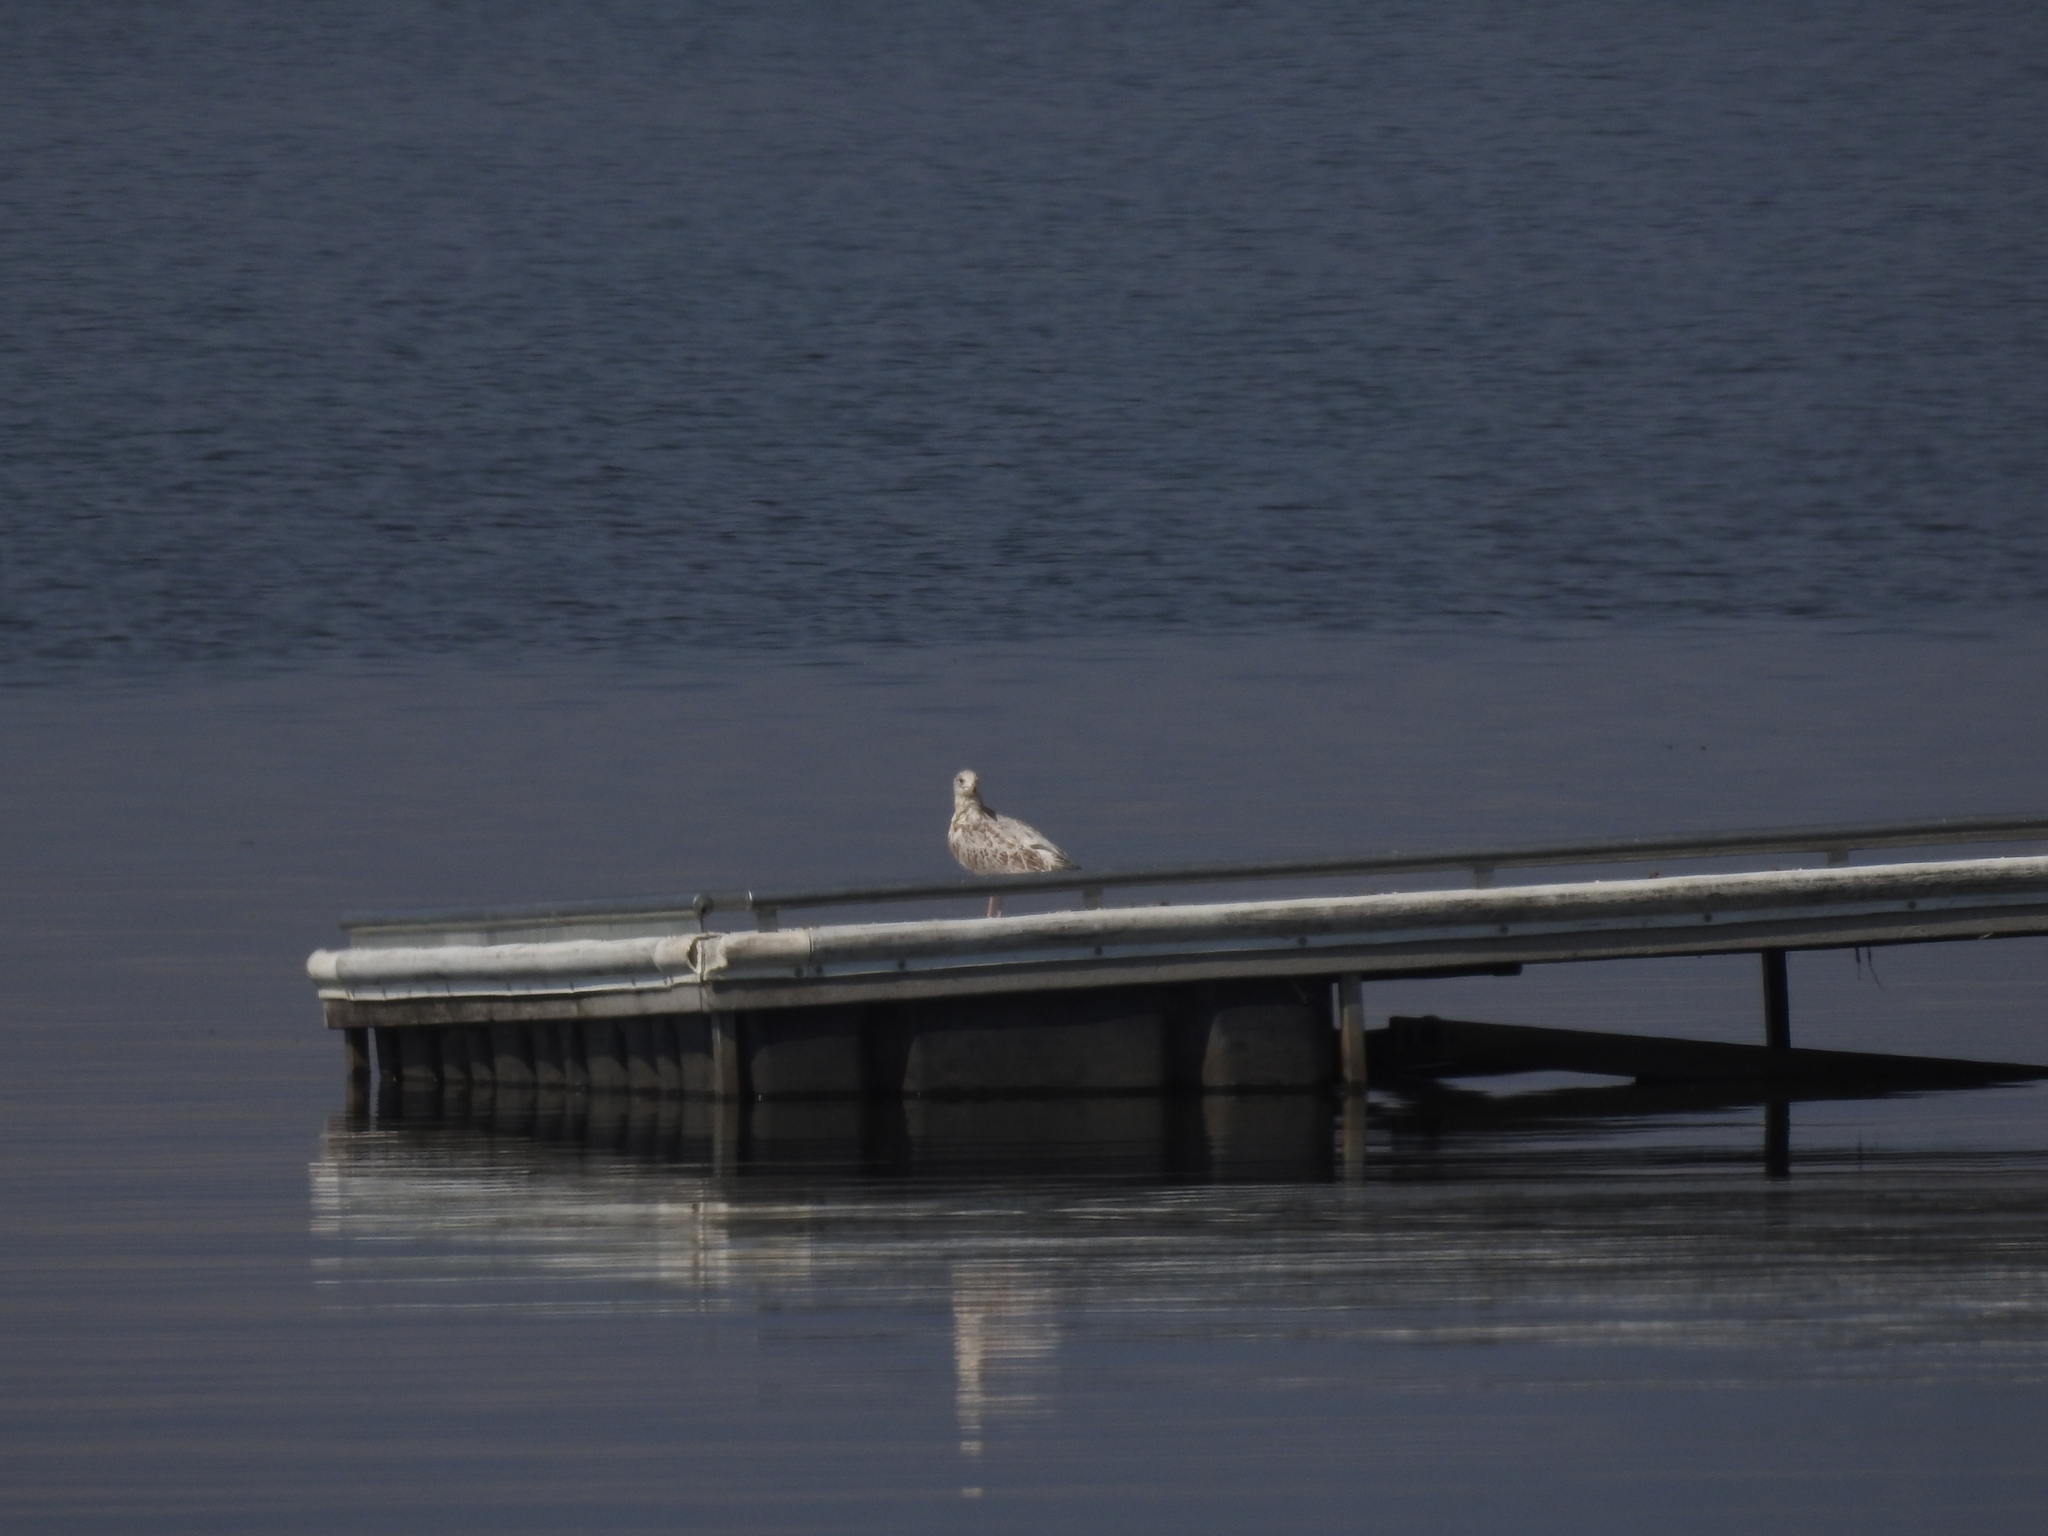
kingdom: Animalia
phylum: Chordata
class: Aves
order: Charadriiformes
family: Laridae
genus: Larus
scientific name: Larus delawarensis
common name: Ring-billed gull
